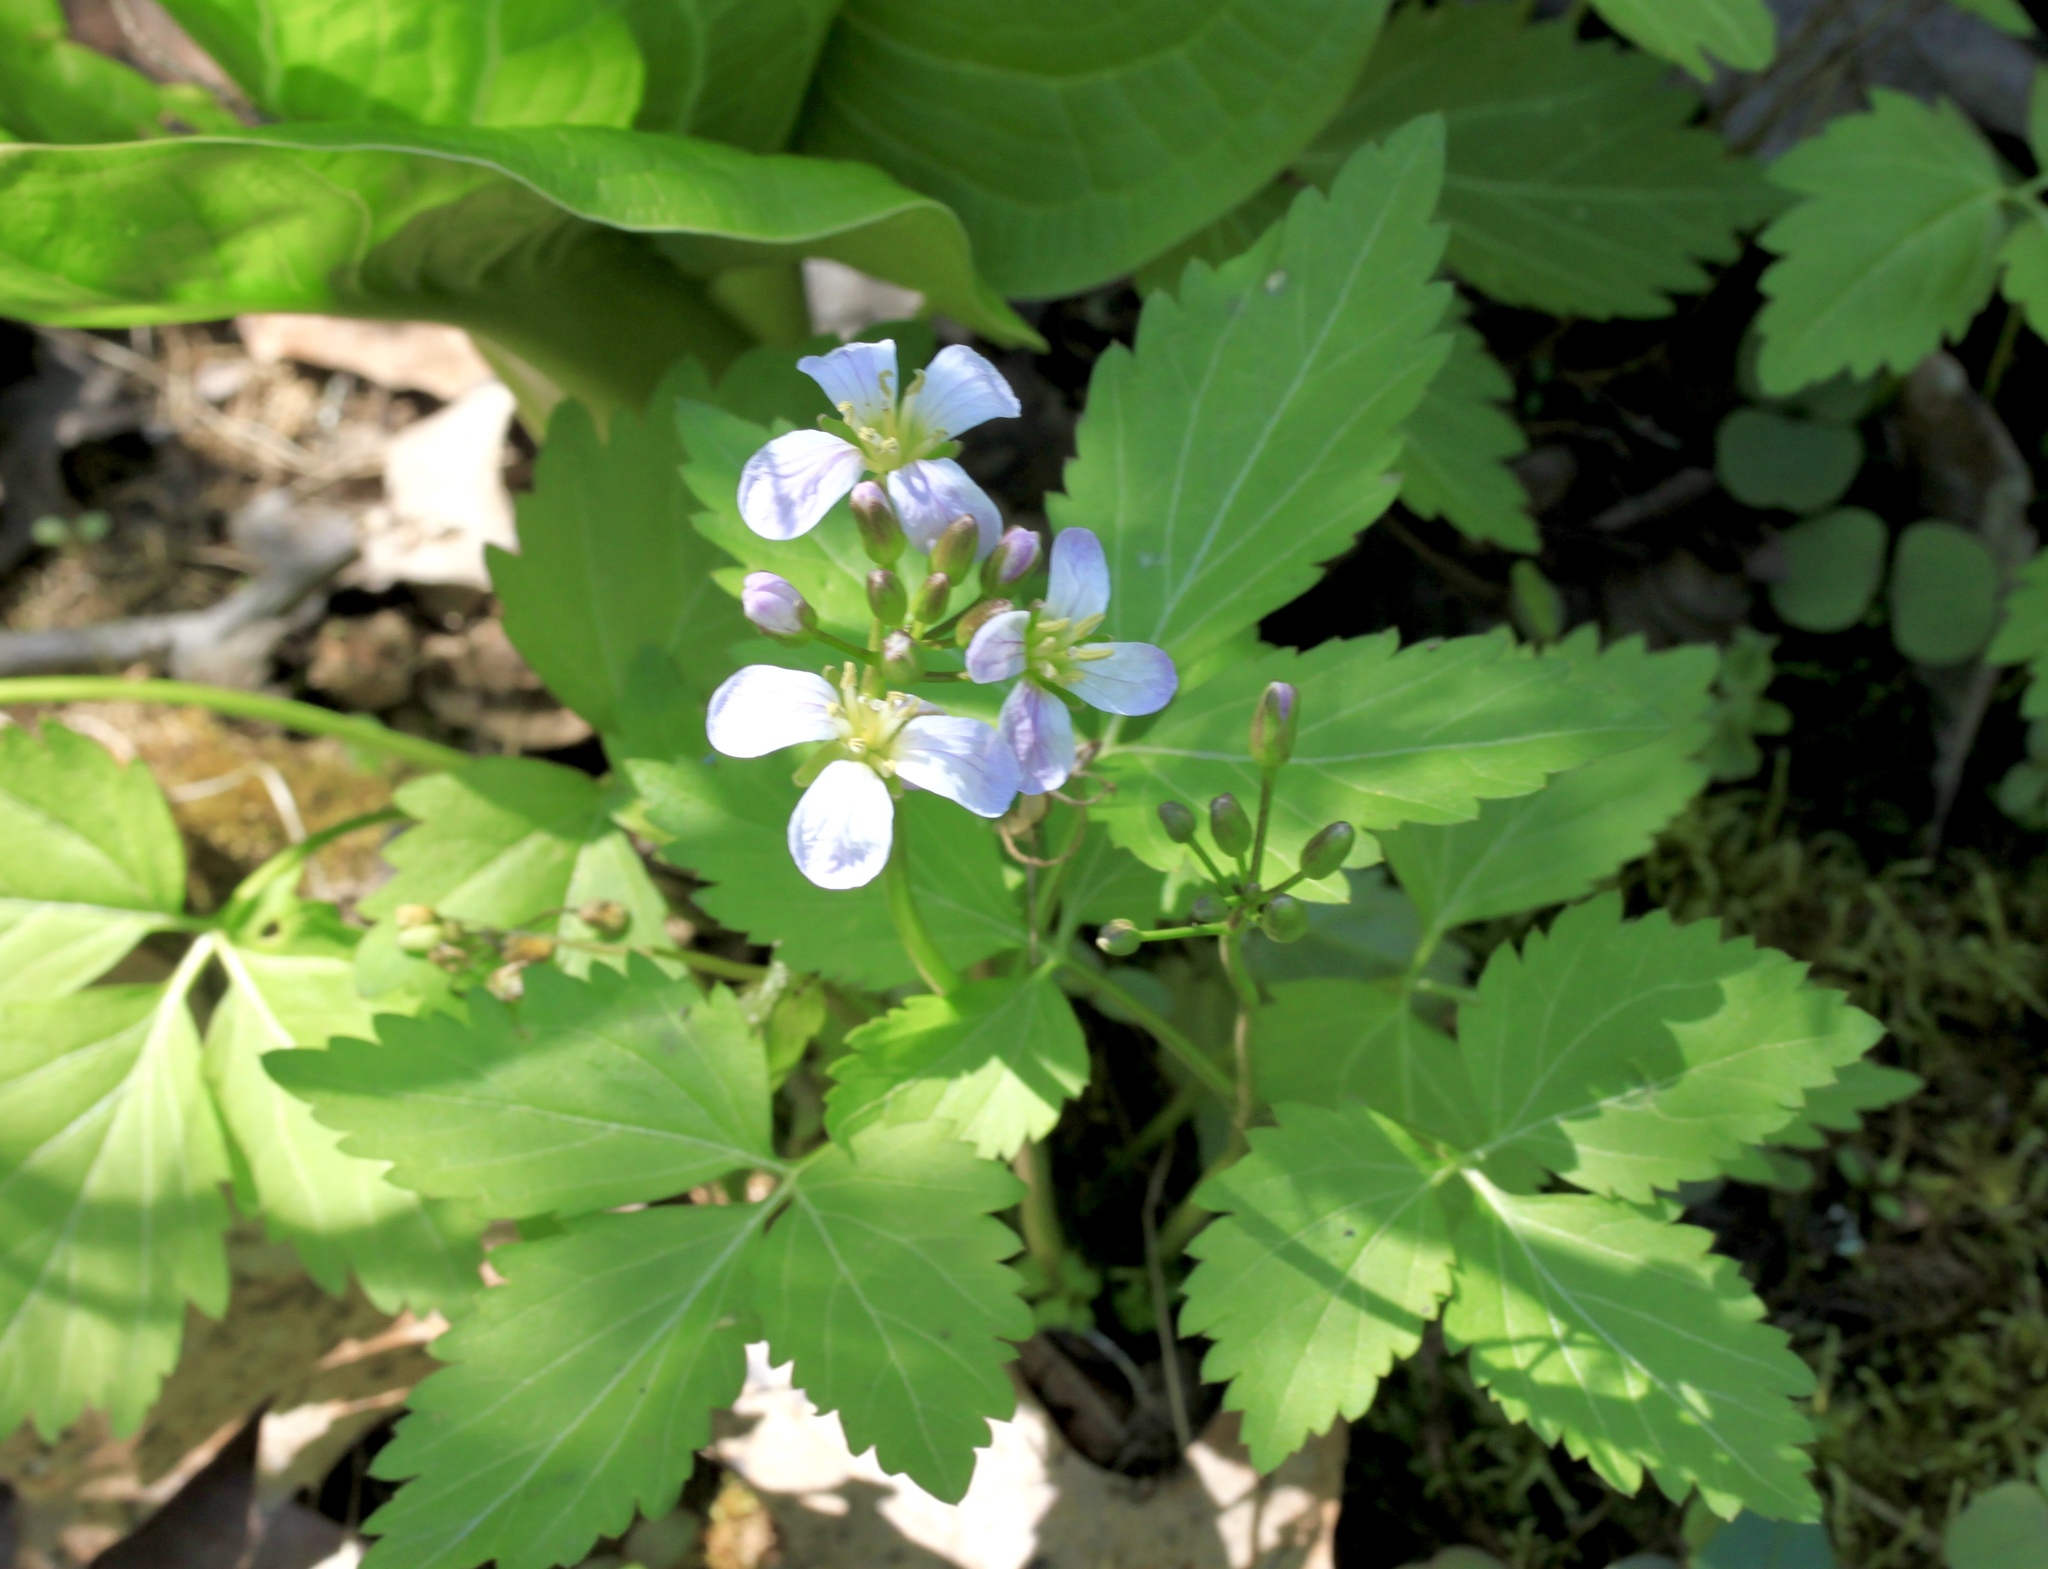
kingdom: Plantae
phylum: Tracheophyta
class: Magnoliopsida
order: Brassicales
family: Brassicaceae
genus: Cardamine
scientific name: Cardamine diphylla
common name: Broad-leaved toothwort
